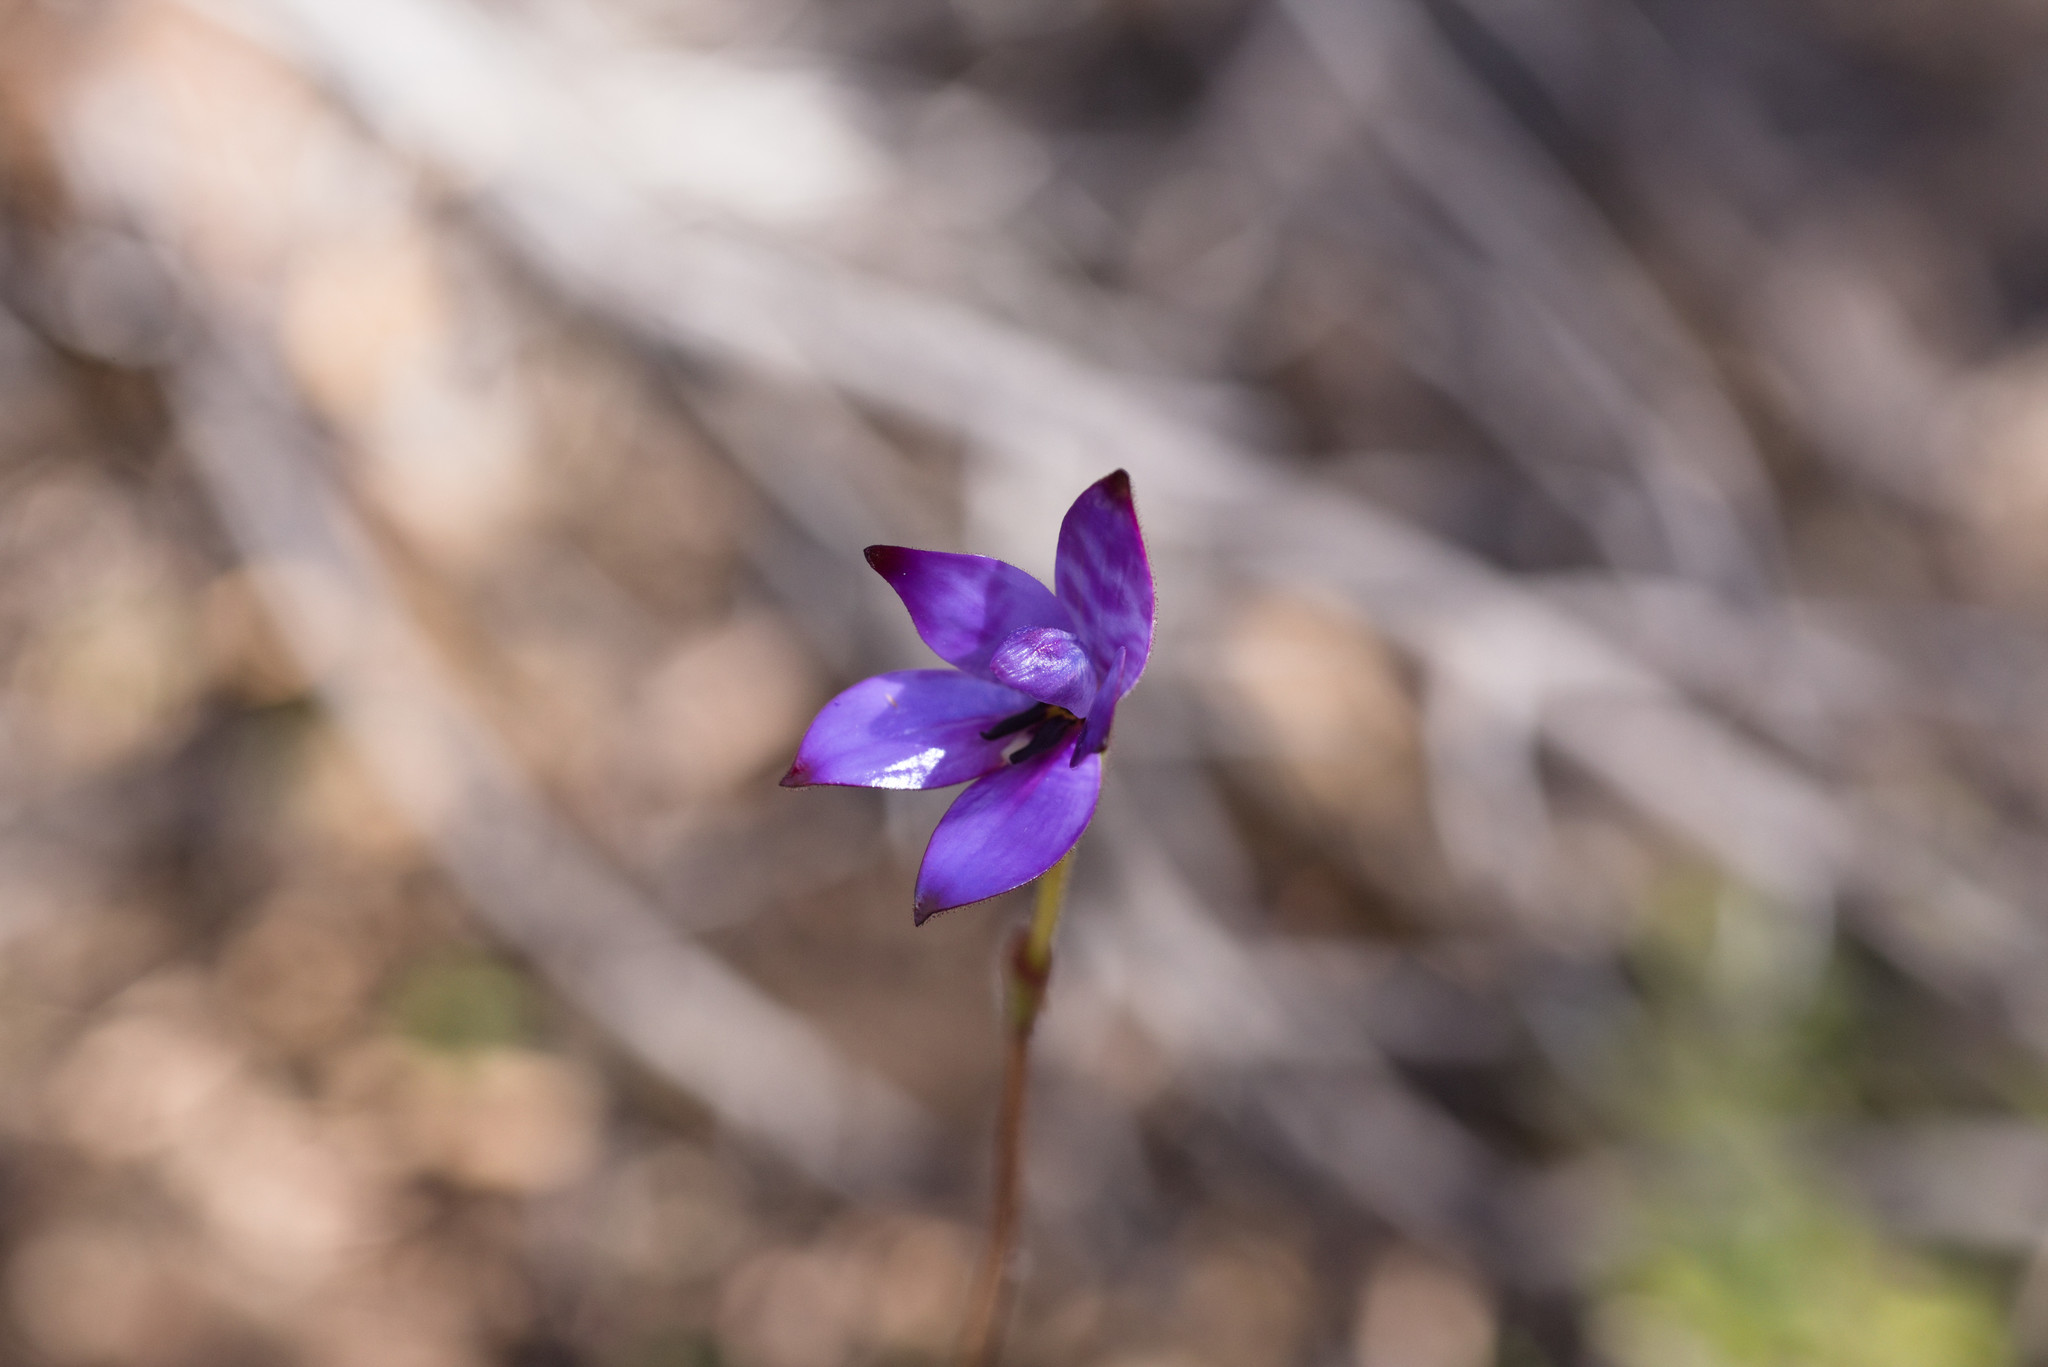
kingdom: Plantae
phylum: Tracheophyta
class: Liliopsida
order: Asparagales
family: Orchidaceae
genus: Caladenia
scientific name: Caladenia brunonis
